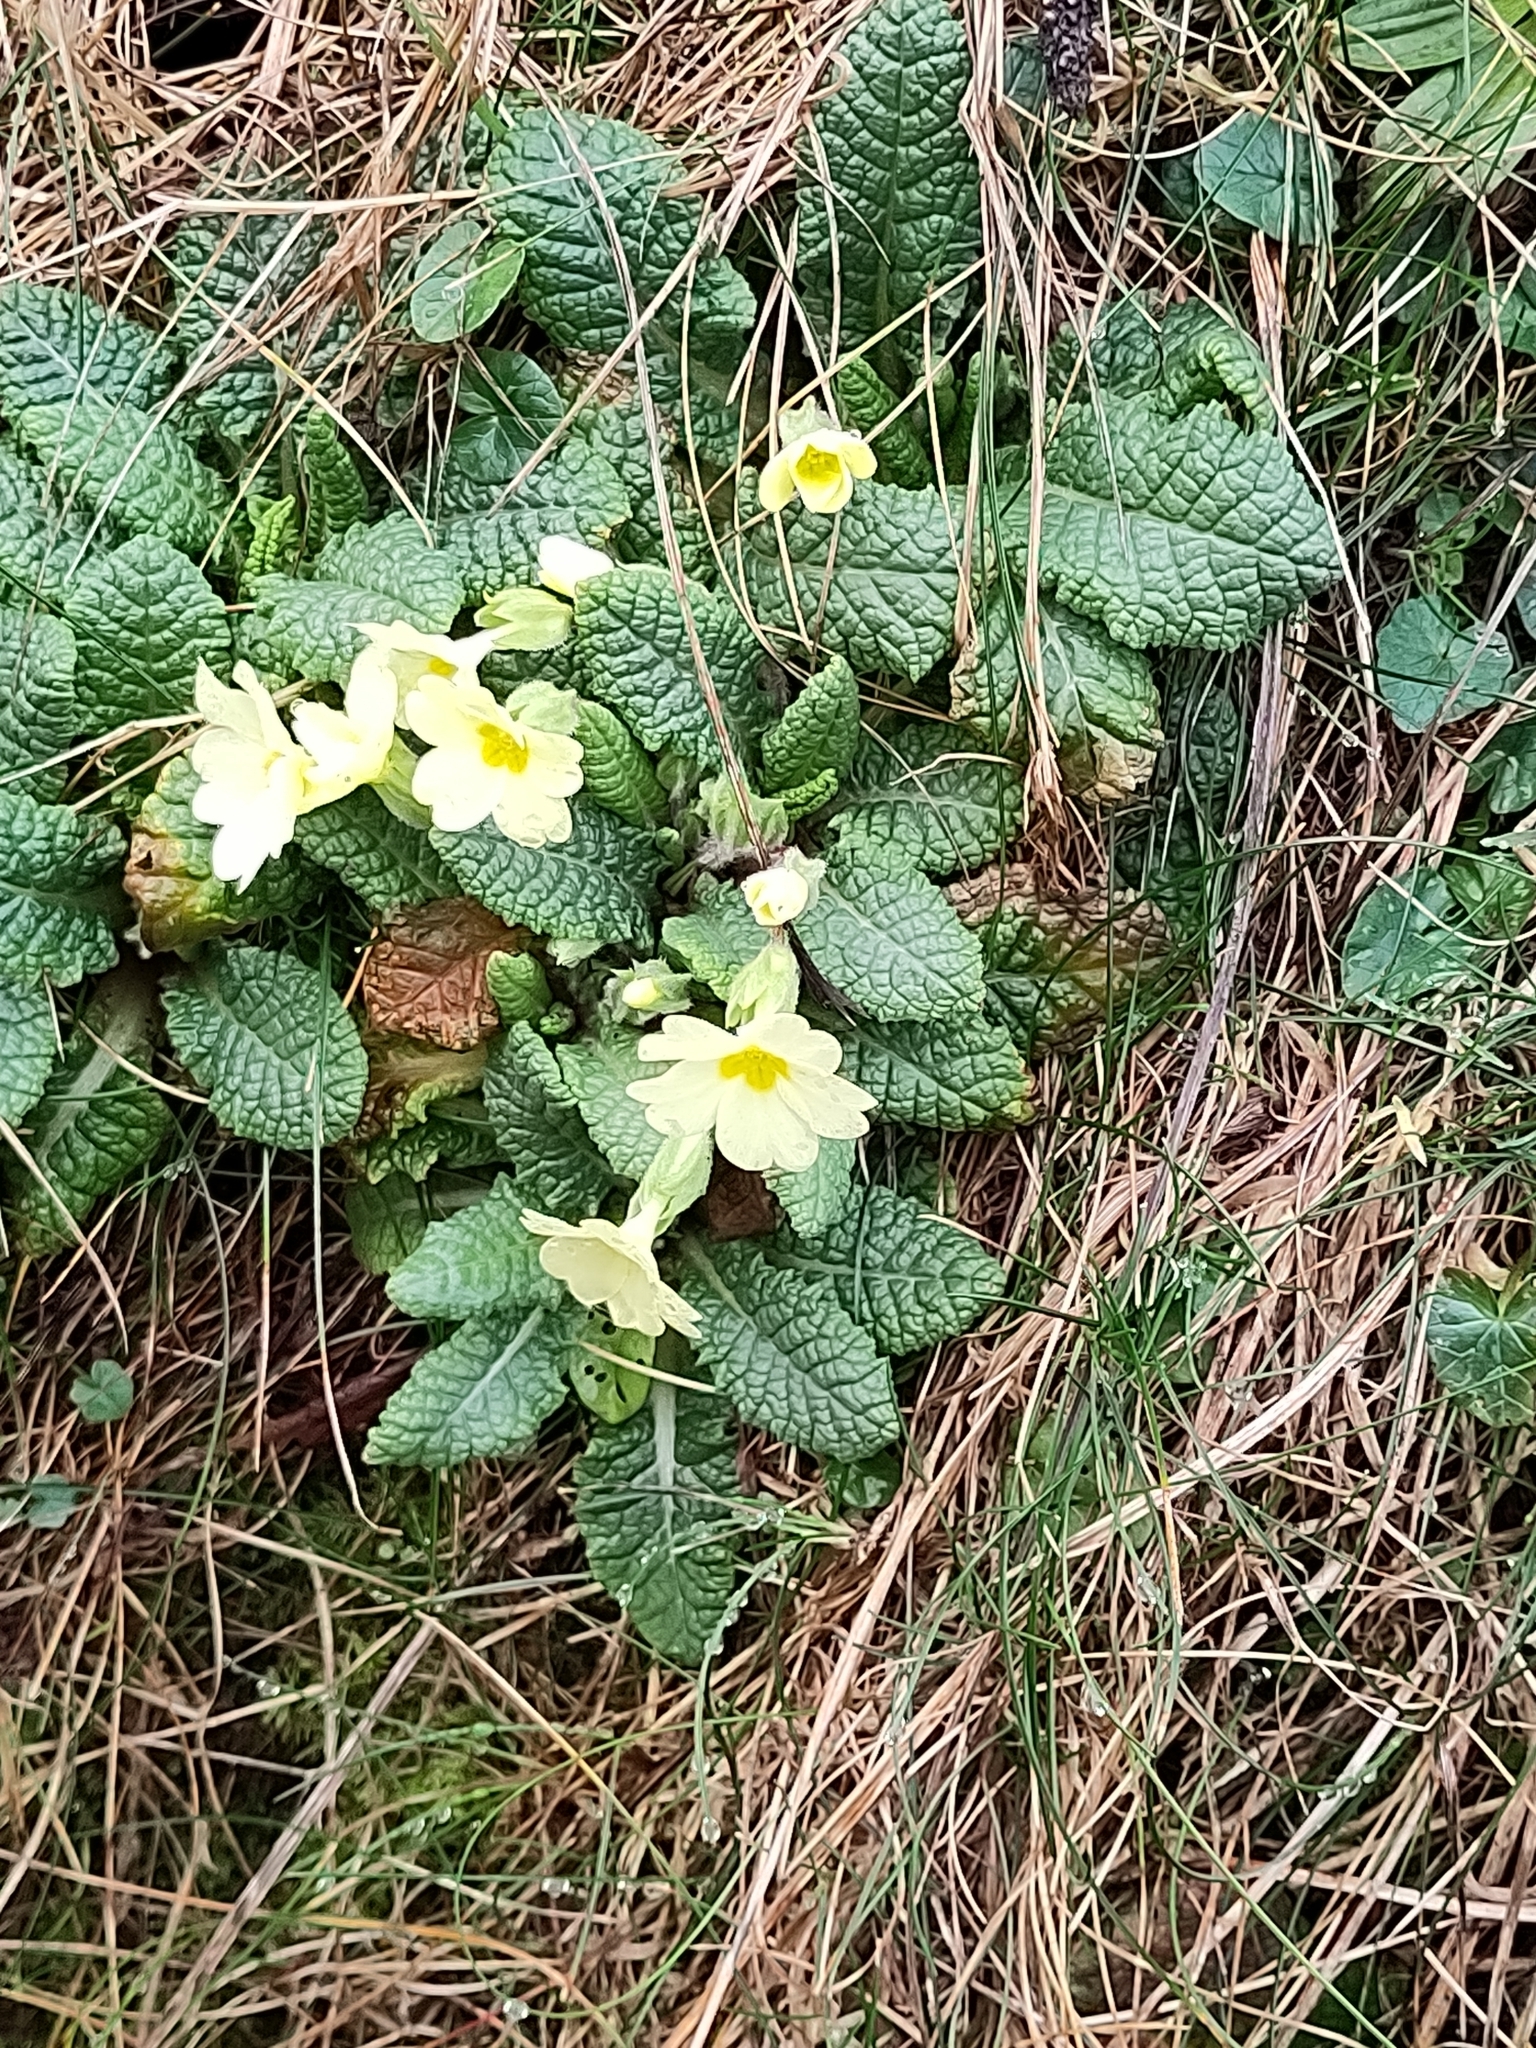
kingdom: Plantae
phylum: Tracheophyta
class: Magnoliopsida
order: Ericales
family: Primulaceae
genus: Primula
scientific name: Primula vulgaris
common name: Primrose
